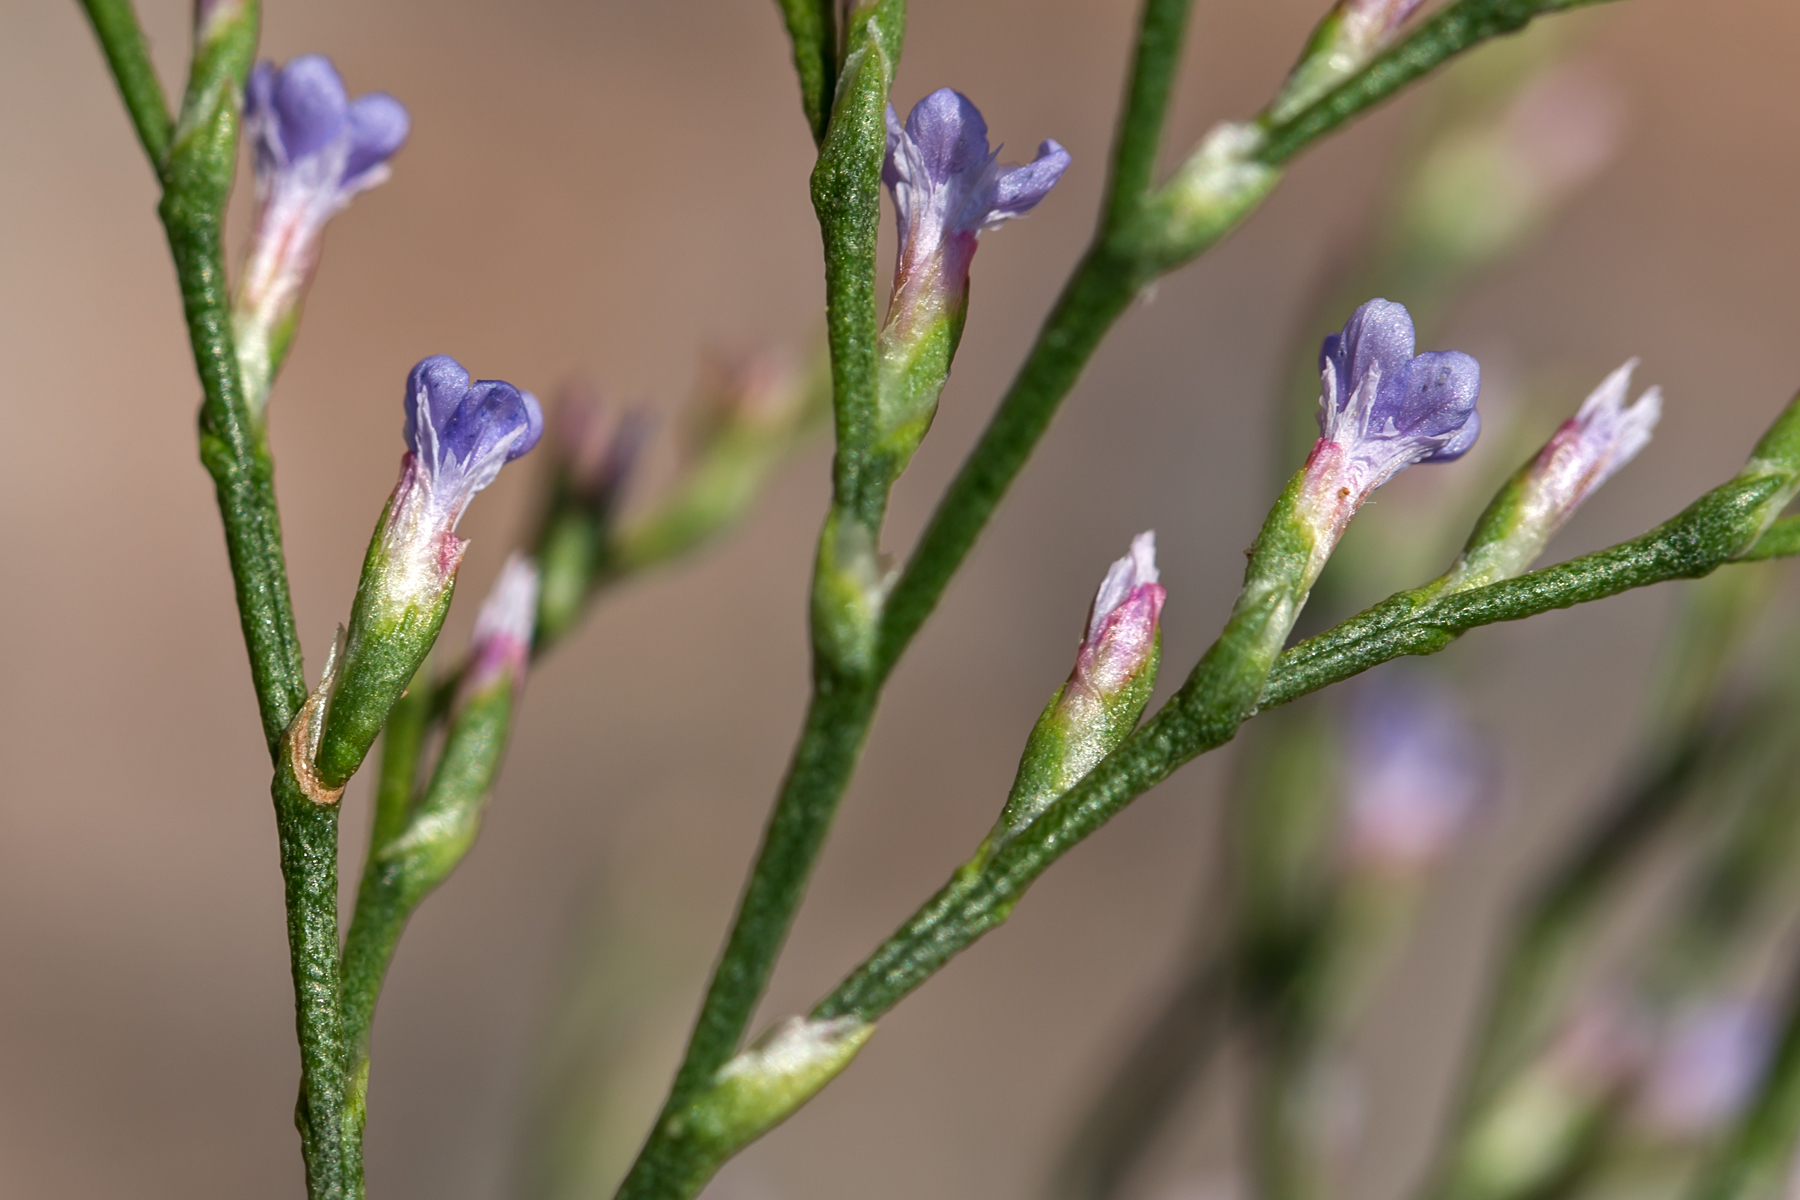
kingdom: Plantae
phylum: Tracheophyta
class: Magnoliopsida
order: Caryophyllales
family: Plumbaginaceae
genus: Limonium
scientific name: Limonium carolinianum
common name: Carolina sea lavender
